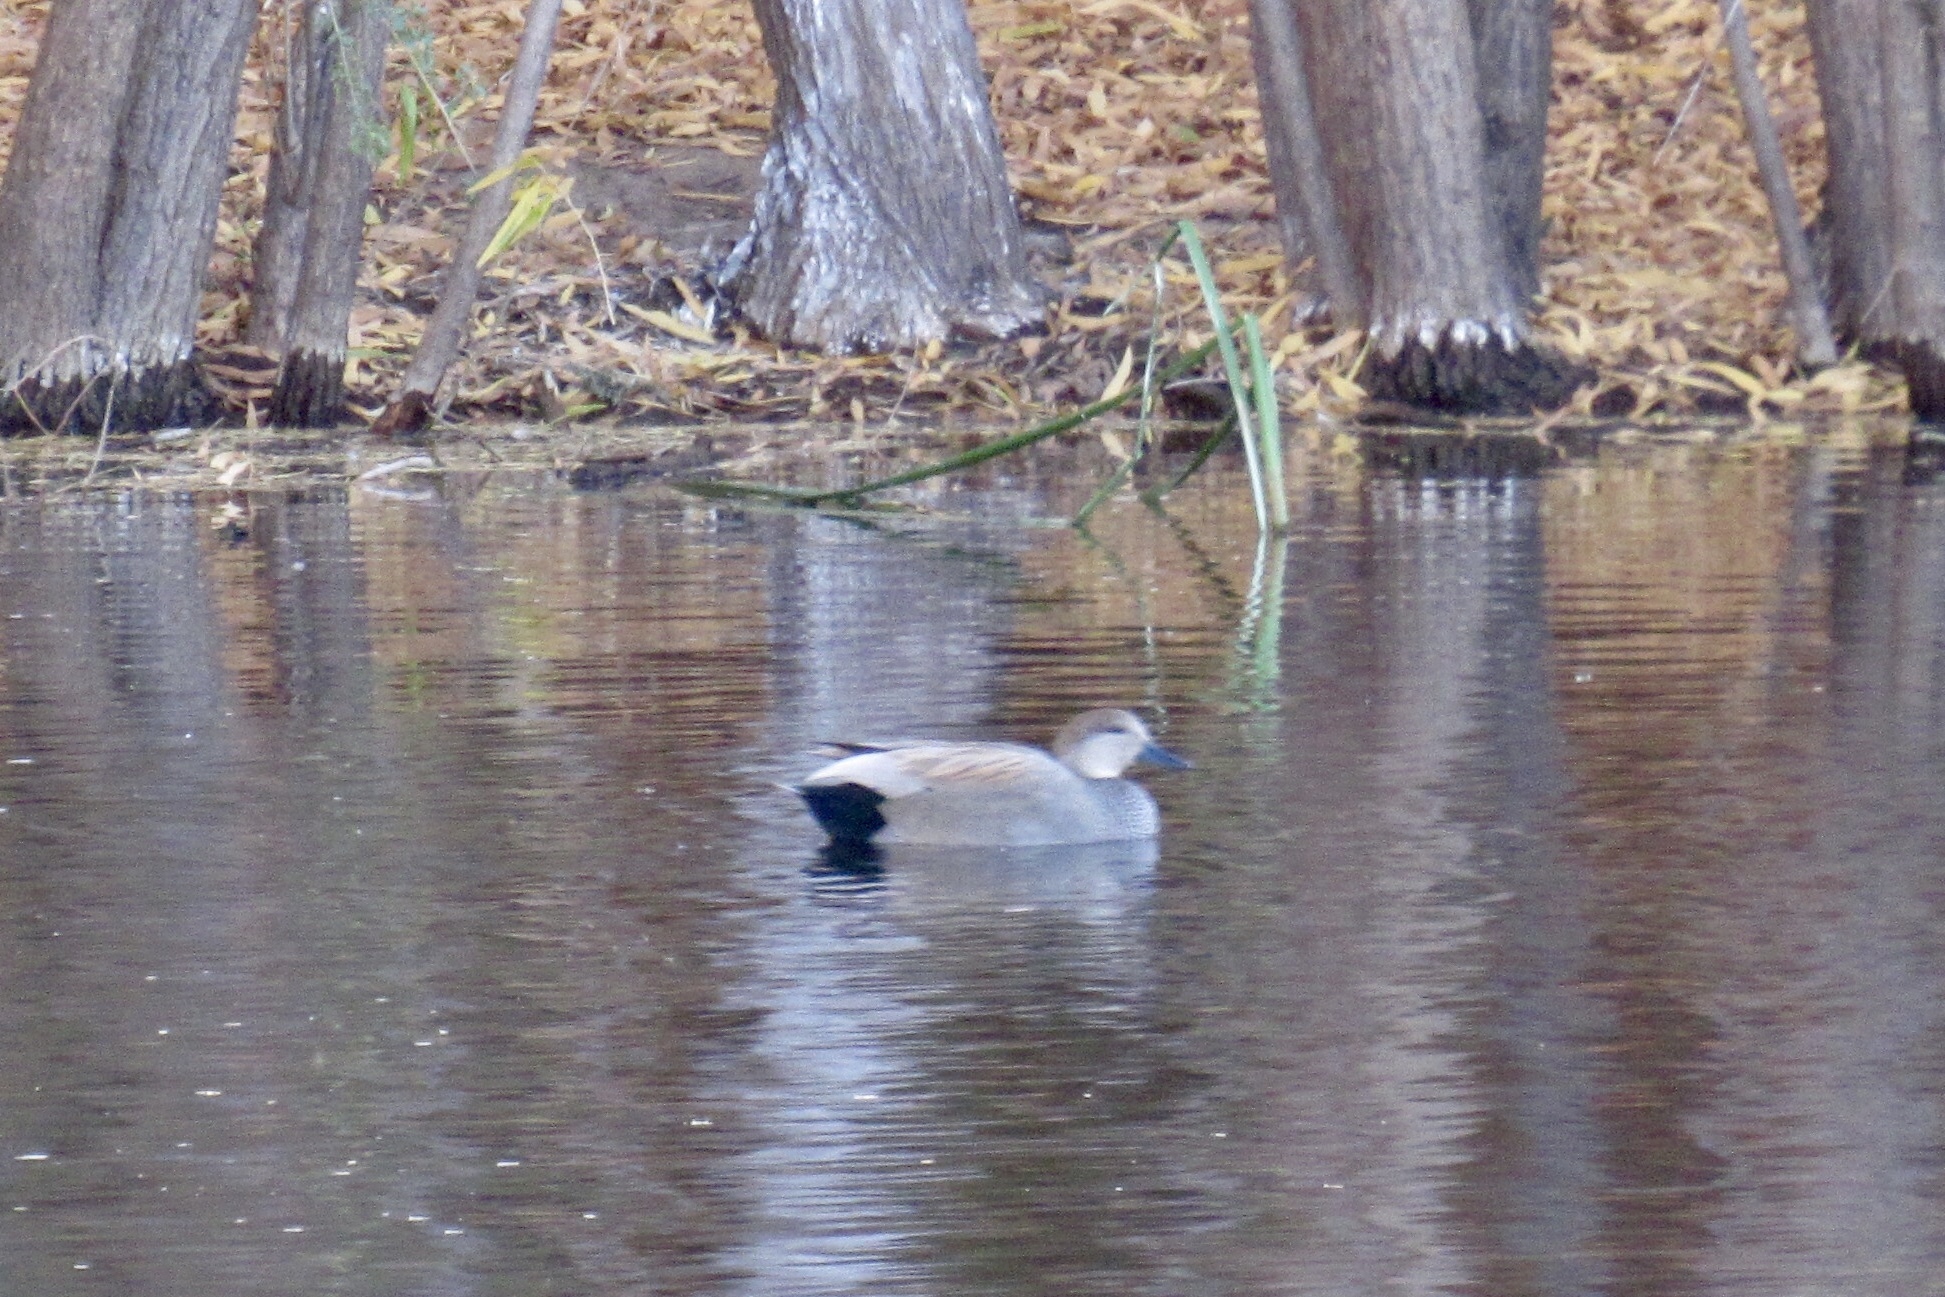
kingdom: Animalia
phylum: Chordata
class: Aves
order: Anseriformes
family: Anatidae
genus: Mareca
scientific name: Mareca strepera
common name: Gadwall
